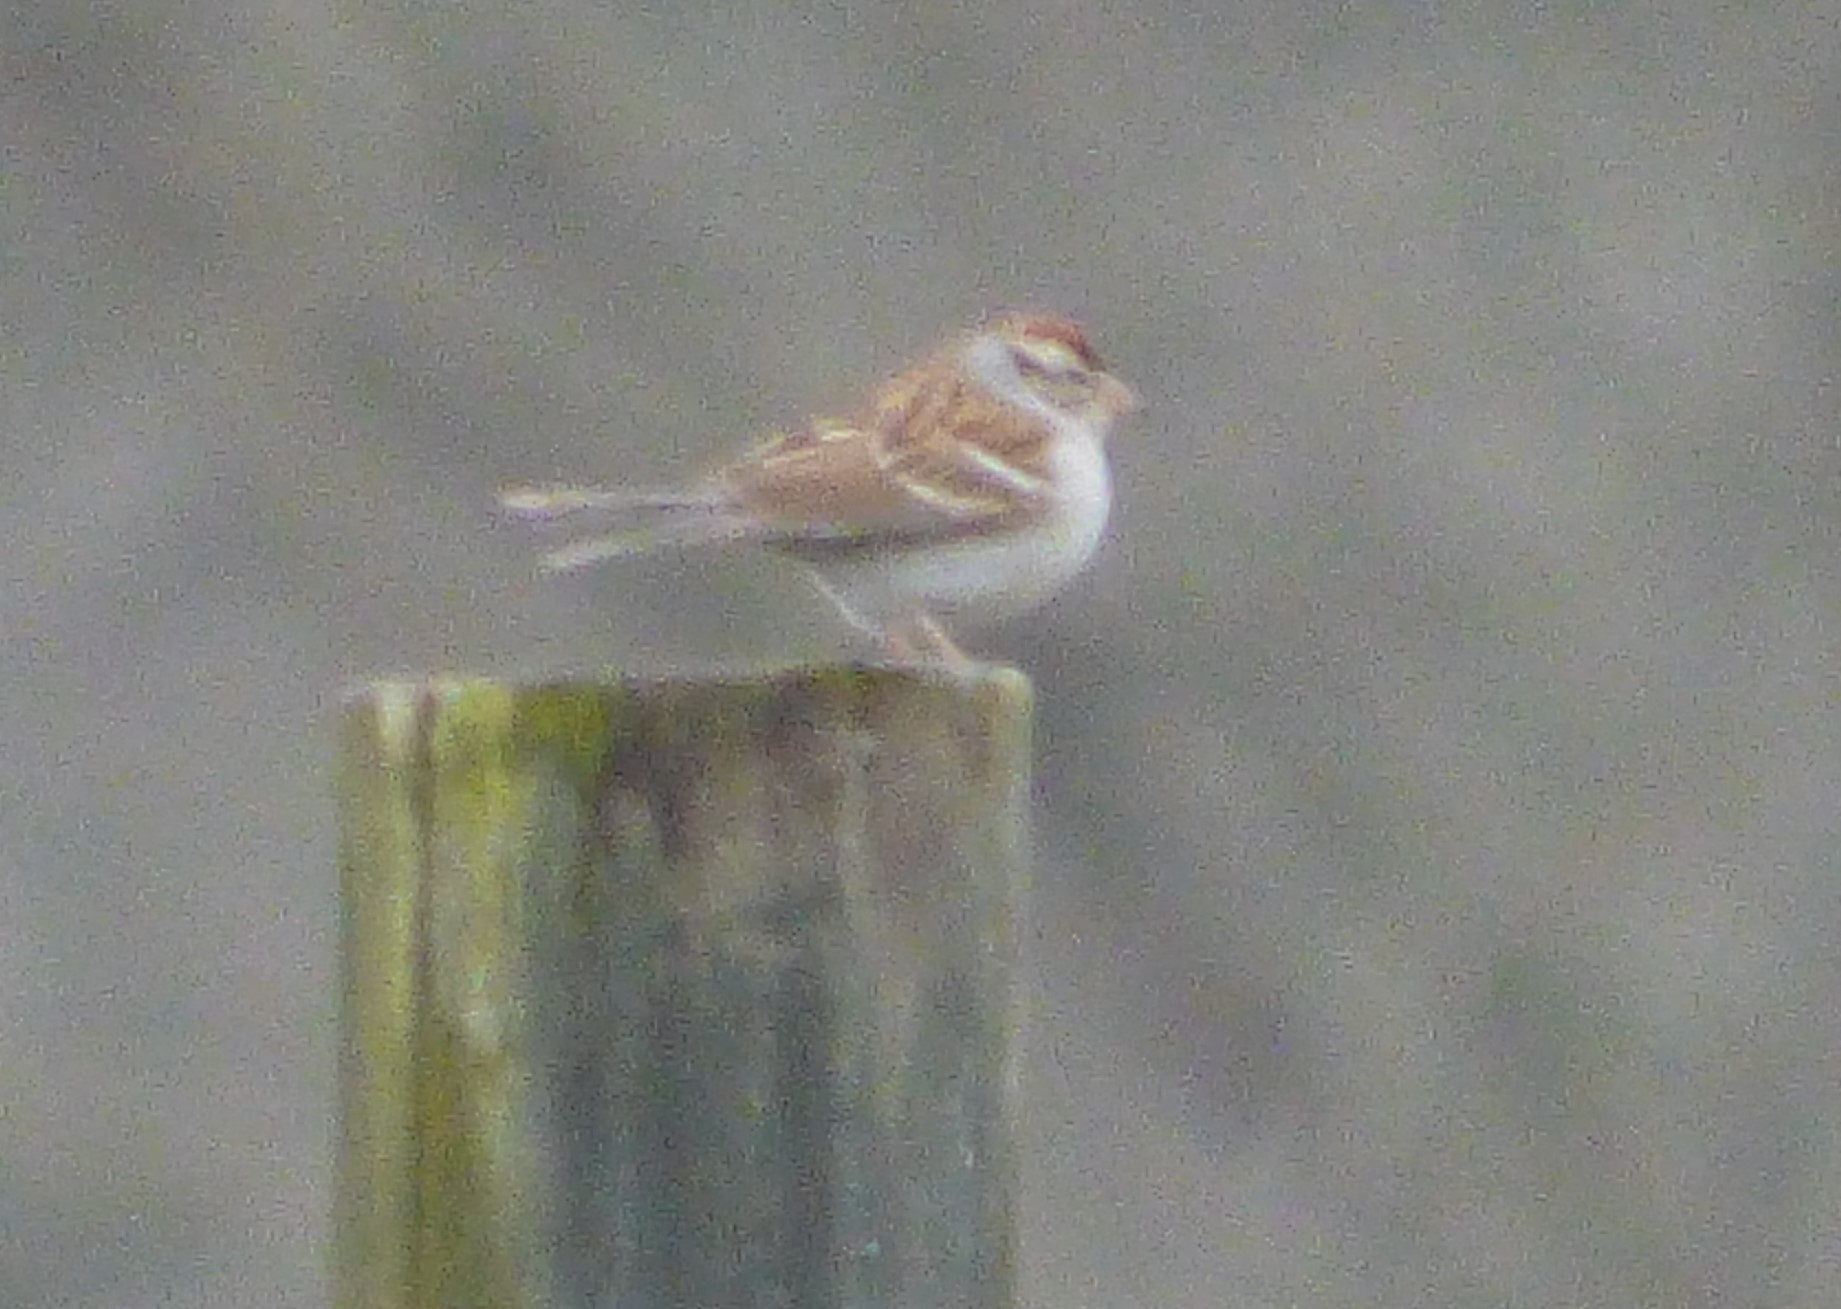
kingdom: Animalia
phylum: Chordata
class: Aves
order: Passeriformes
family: Passerellidae
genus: Spizella
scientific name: Spizella passerina
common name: Chipping sparrow
